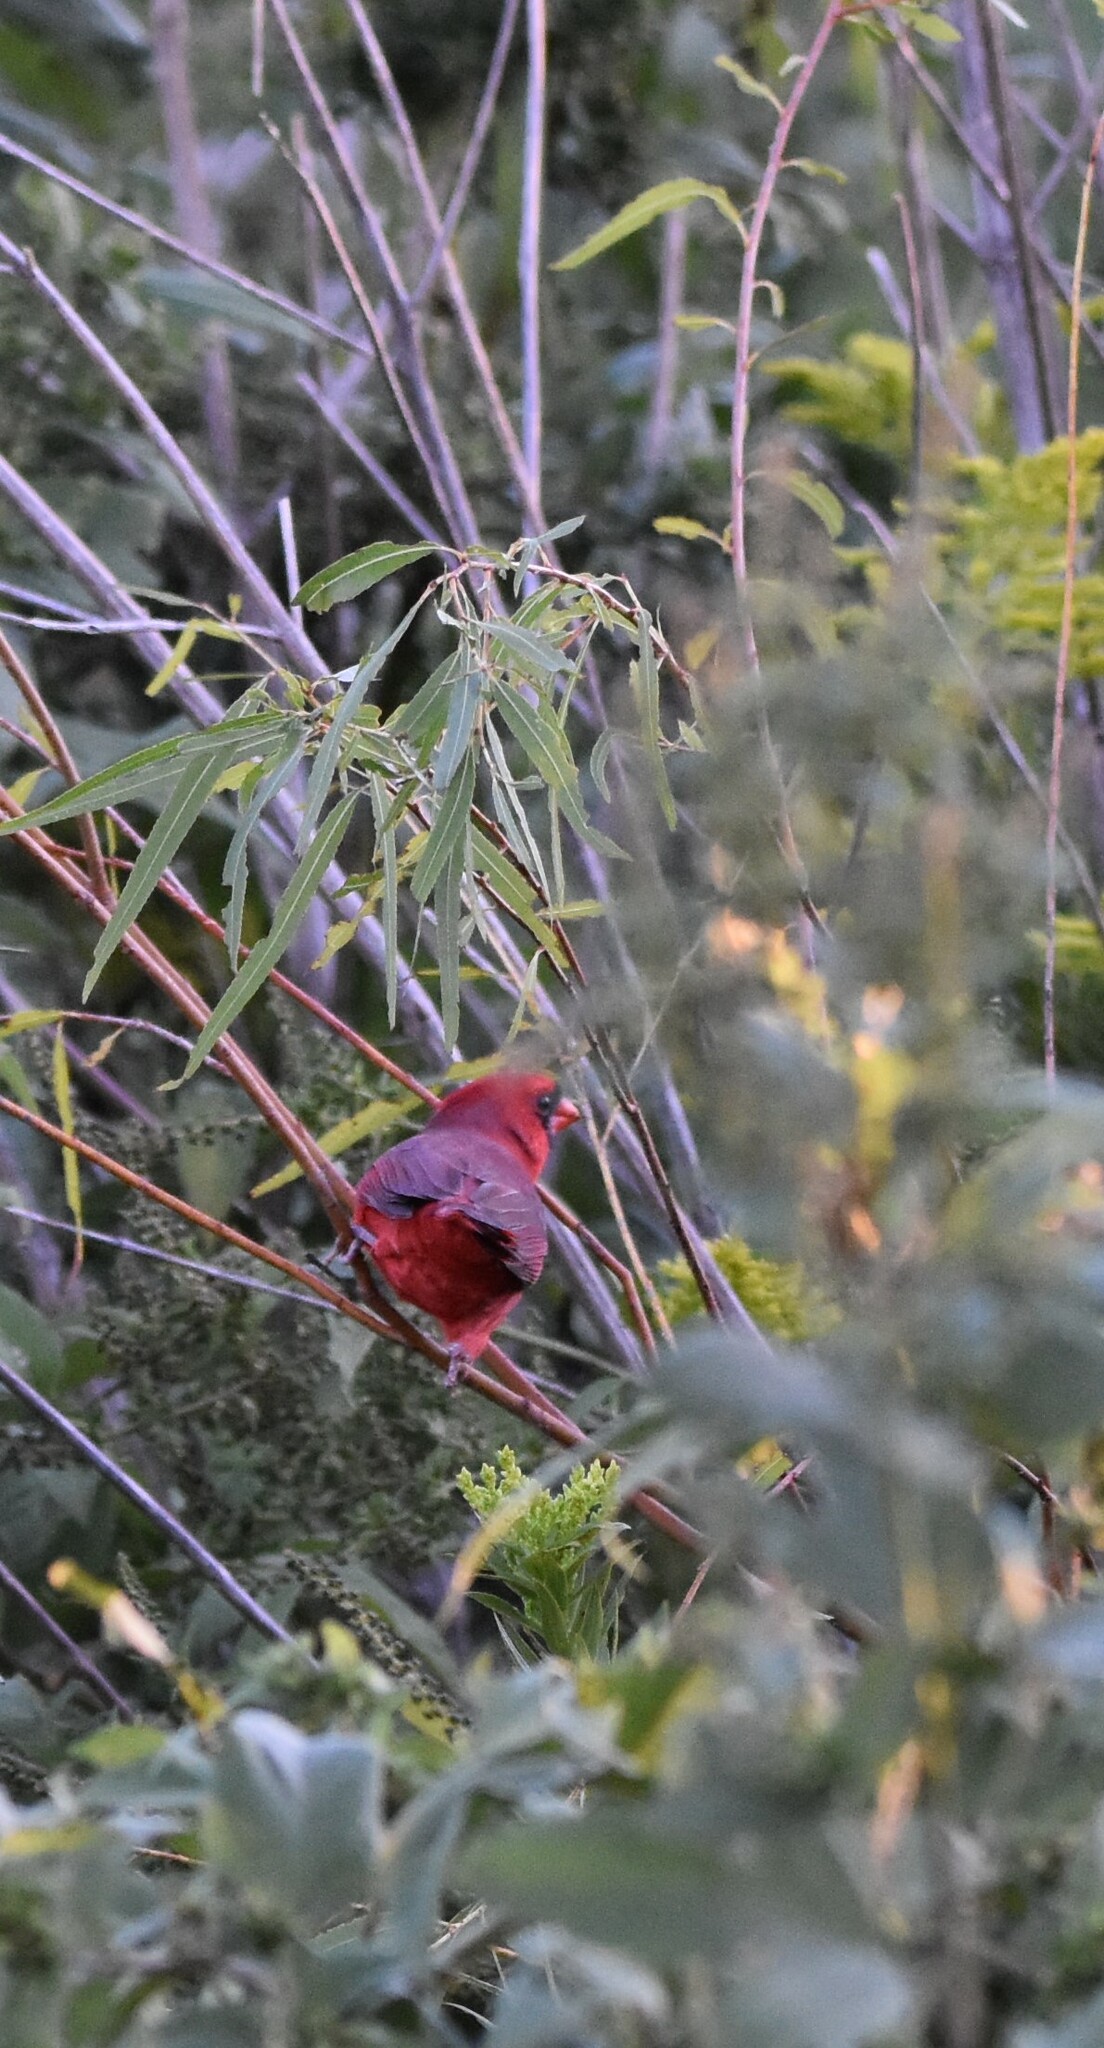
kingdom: Animalia
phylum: Chordata
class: Aves
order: Passeriformes
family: Cardinalidae
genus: Cardinalis
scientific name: Cardinalis cardinalis
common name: Northern cardinal
